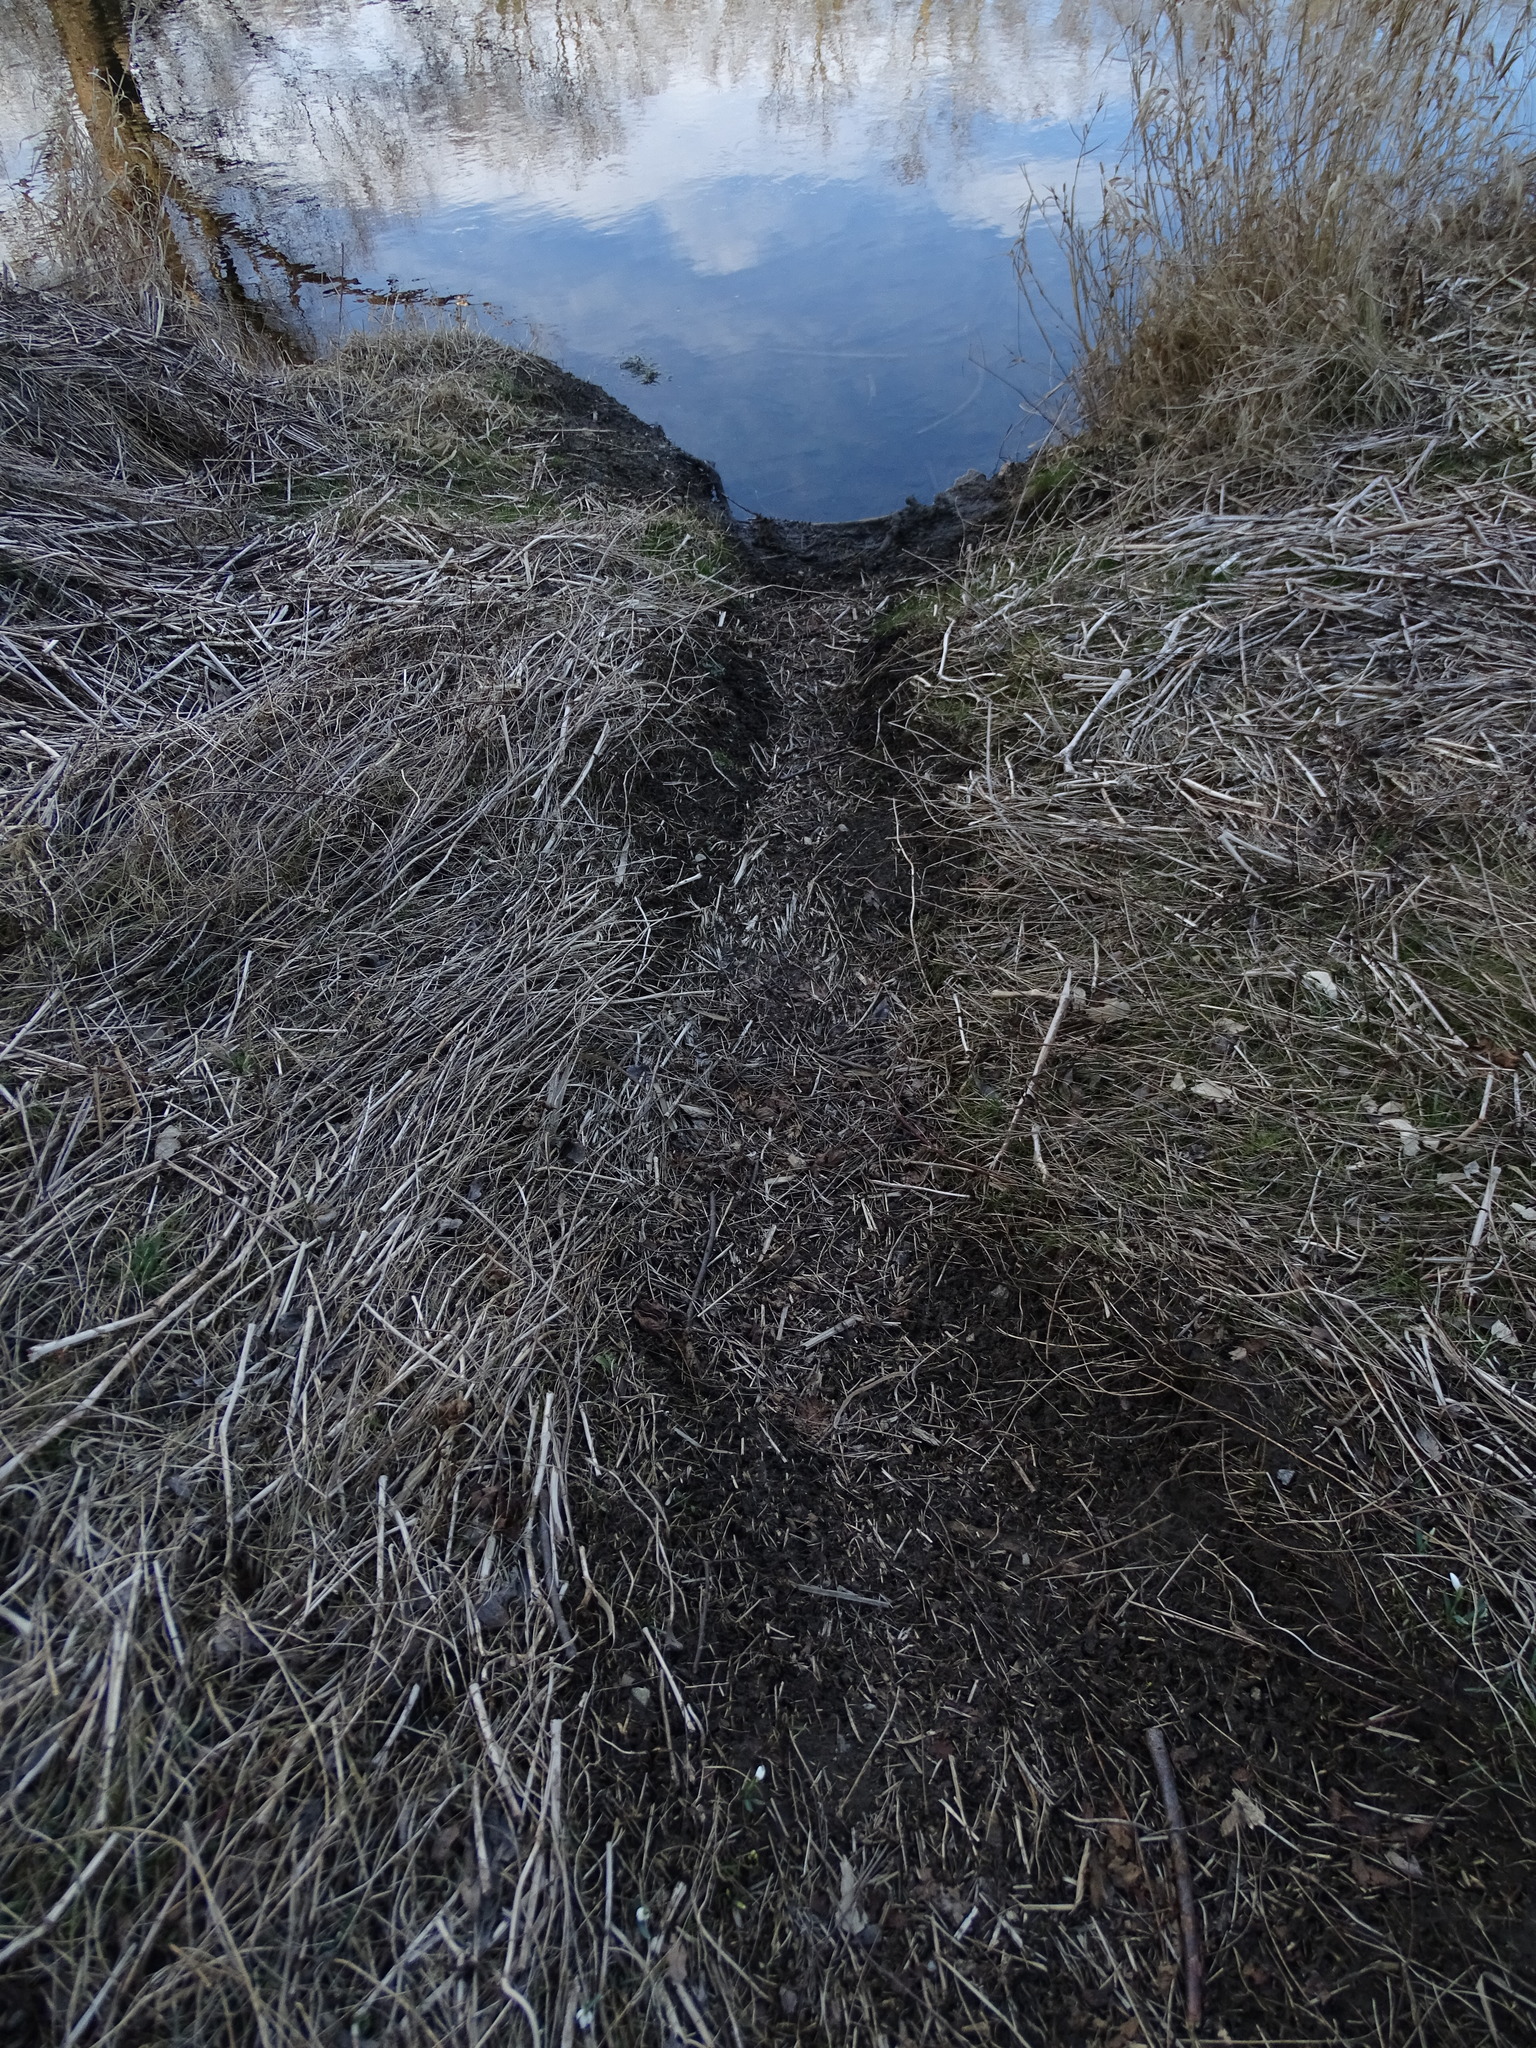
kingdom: Animalia
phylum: Chordata
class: Mammalia
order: Rodentia
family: Castoridae
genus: Castor
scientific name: Castor fiber
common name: Eurasian beaver
